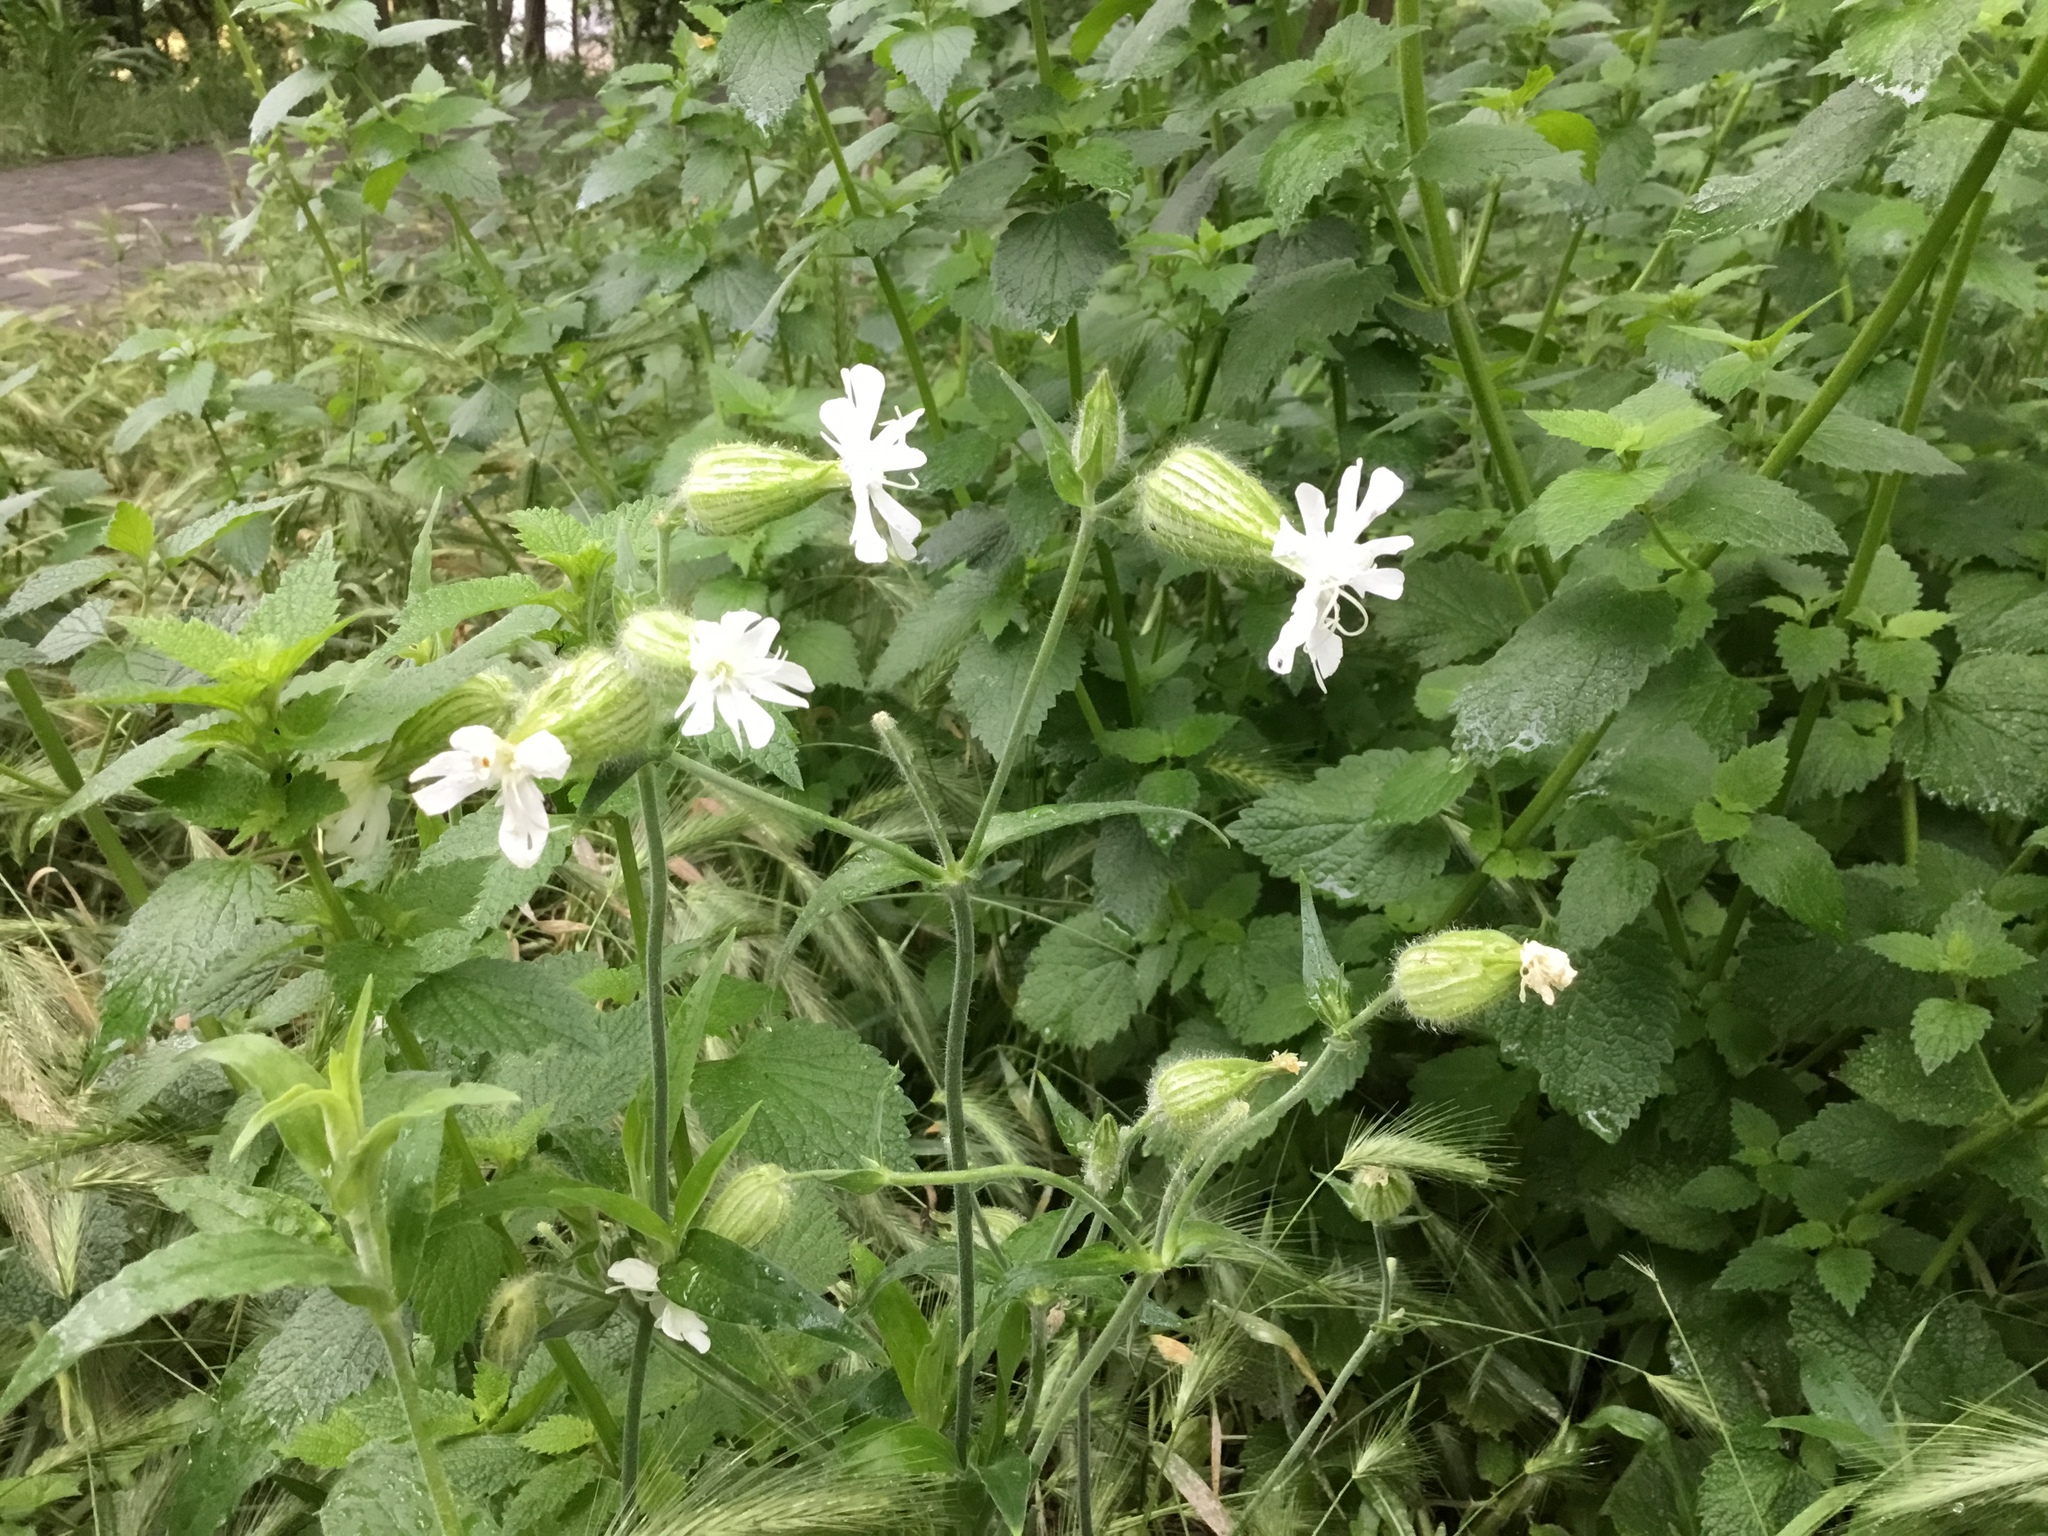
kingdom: Plantae
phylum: Tracheophyta
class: Magnoliopsida
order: Caryophyllales
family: Caryophyllaceae
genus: Silene
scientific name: Silene latifolia
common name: White campion
